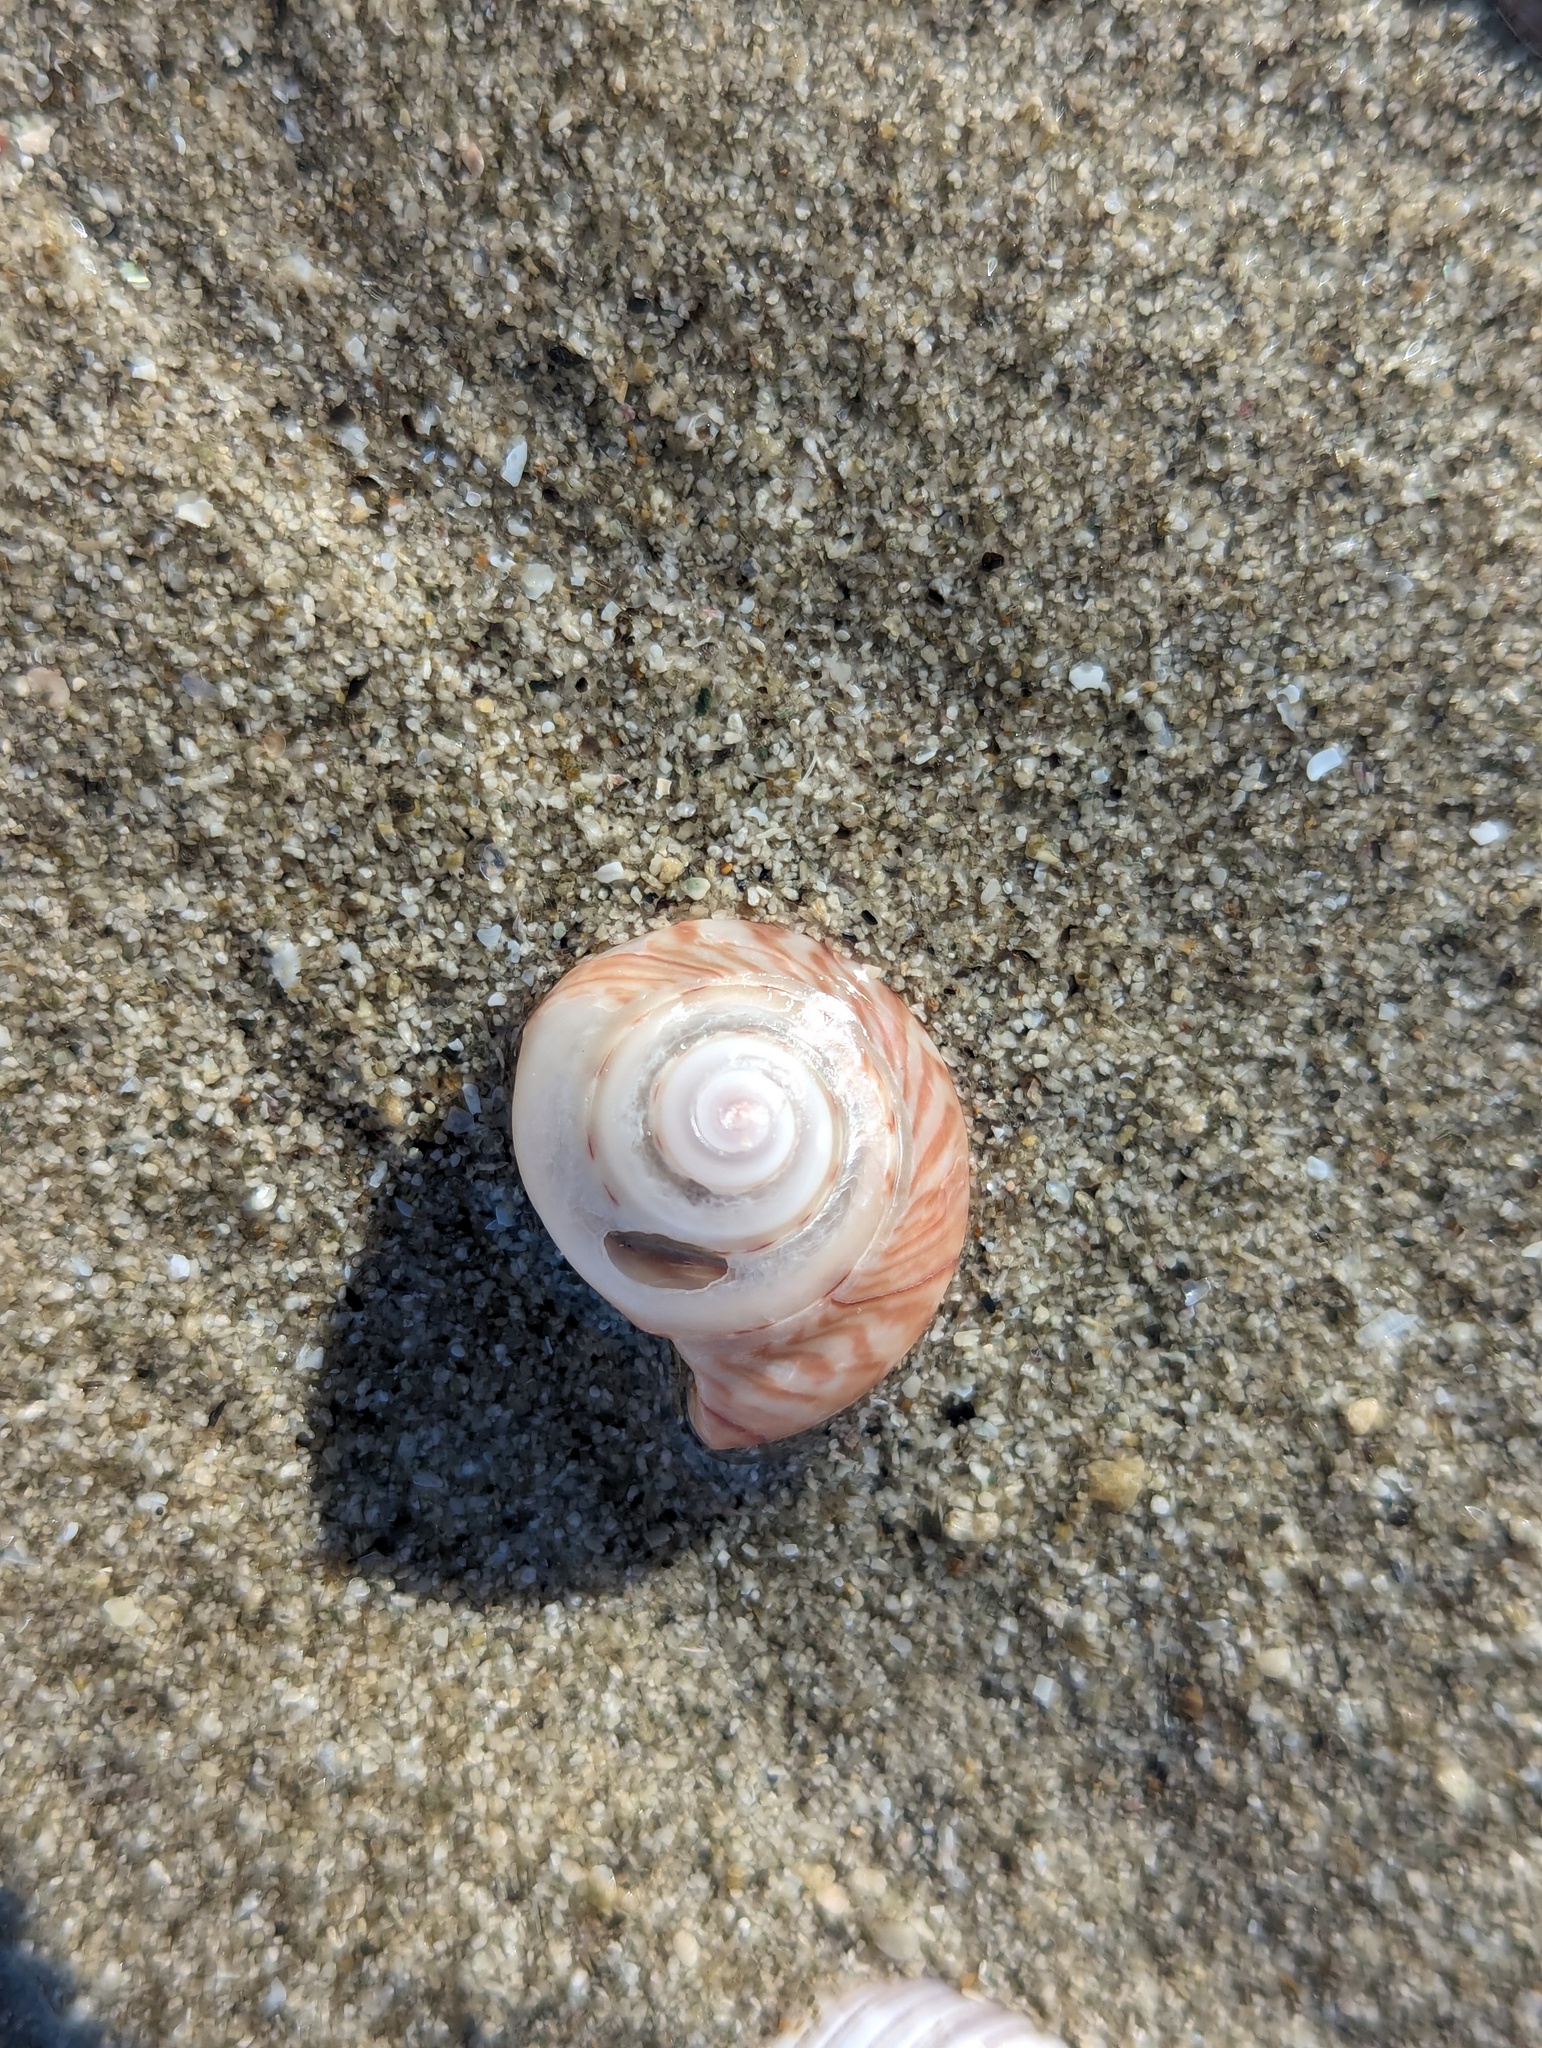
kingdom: Animalia
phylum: Mollusca
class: Gastropoda
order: Trochida
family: Trochidae
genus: Zethalia
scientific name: Zethalia zelandica
